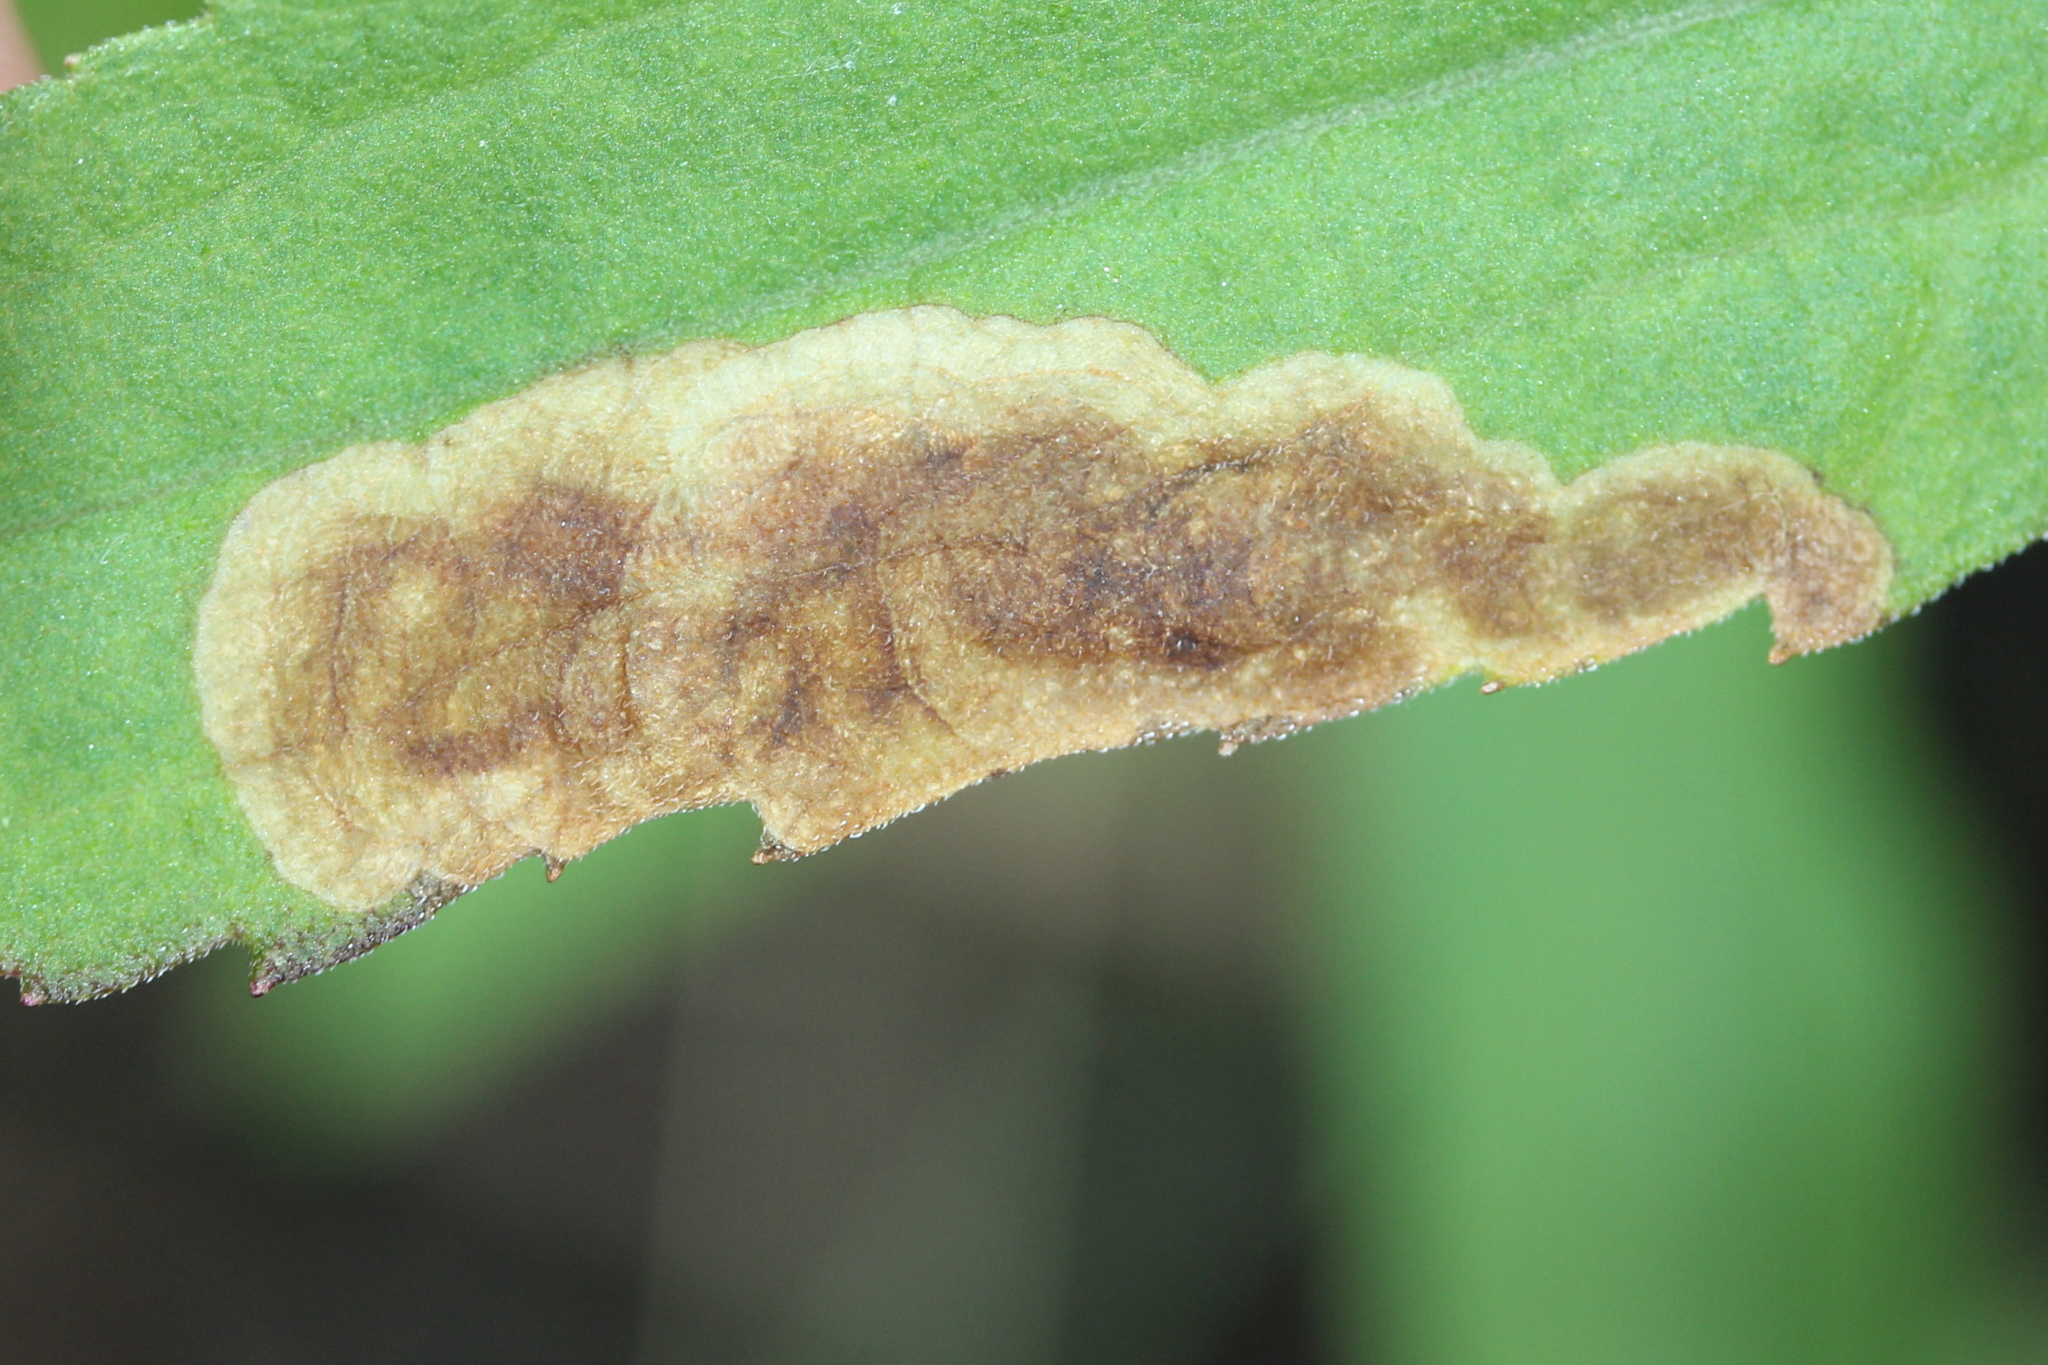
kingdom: Animalia
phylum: Arthropoda
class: Insecta
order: Diptera
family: Agromyzidae
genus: Nemorimyza
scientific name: Nemorimyza posticata
